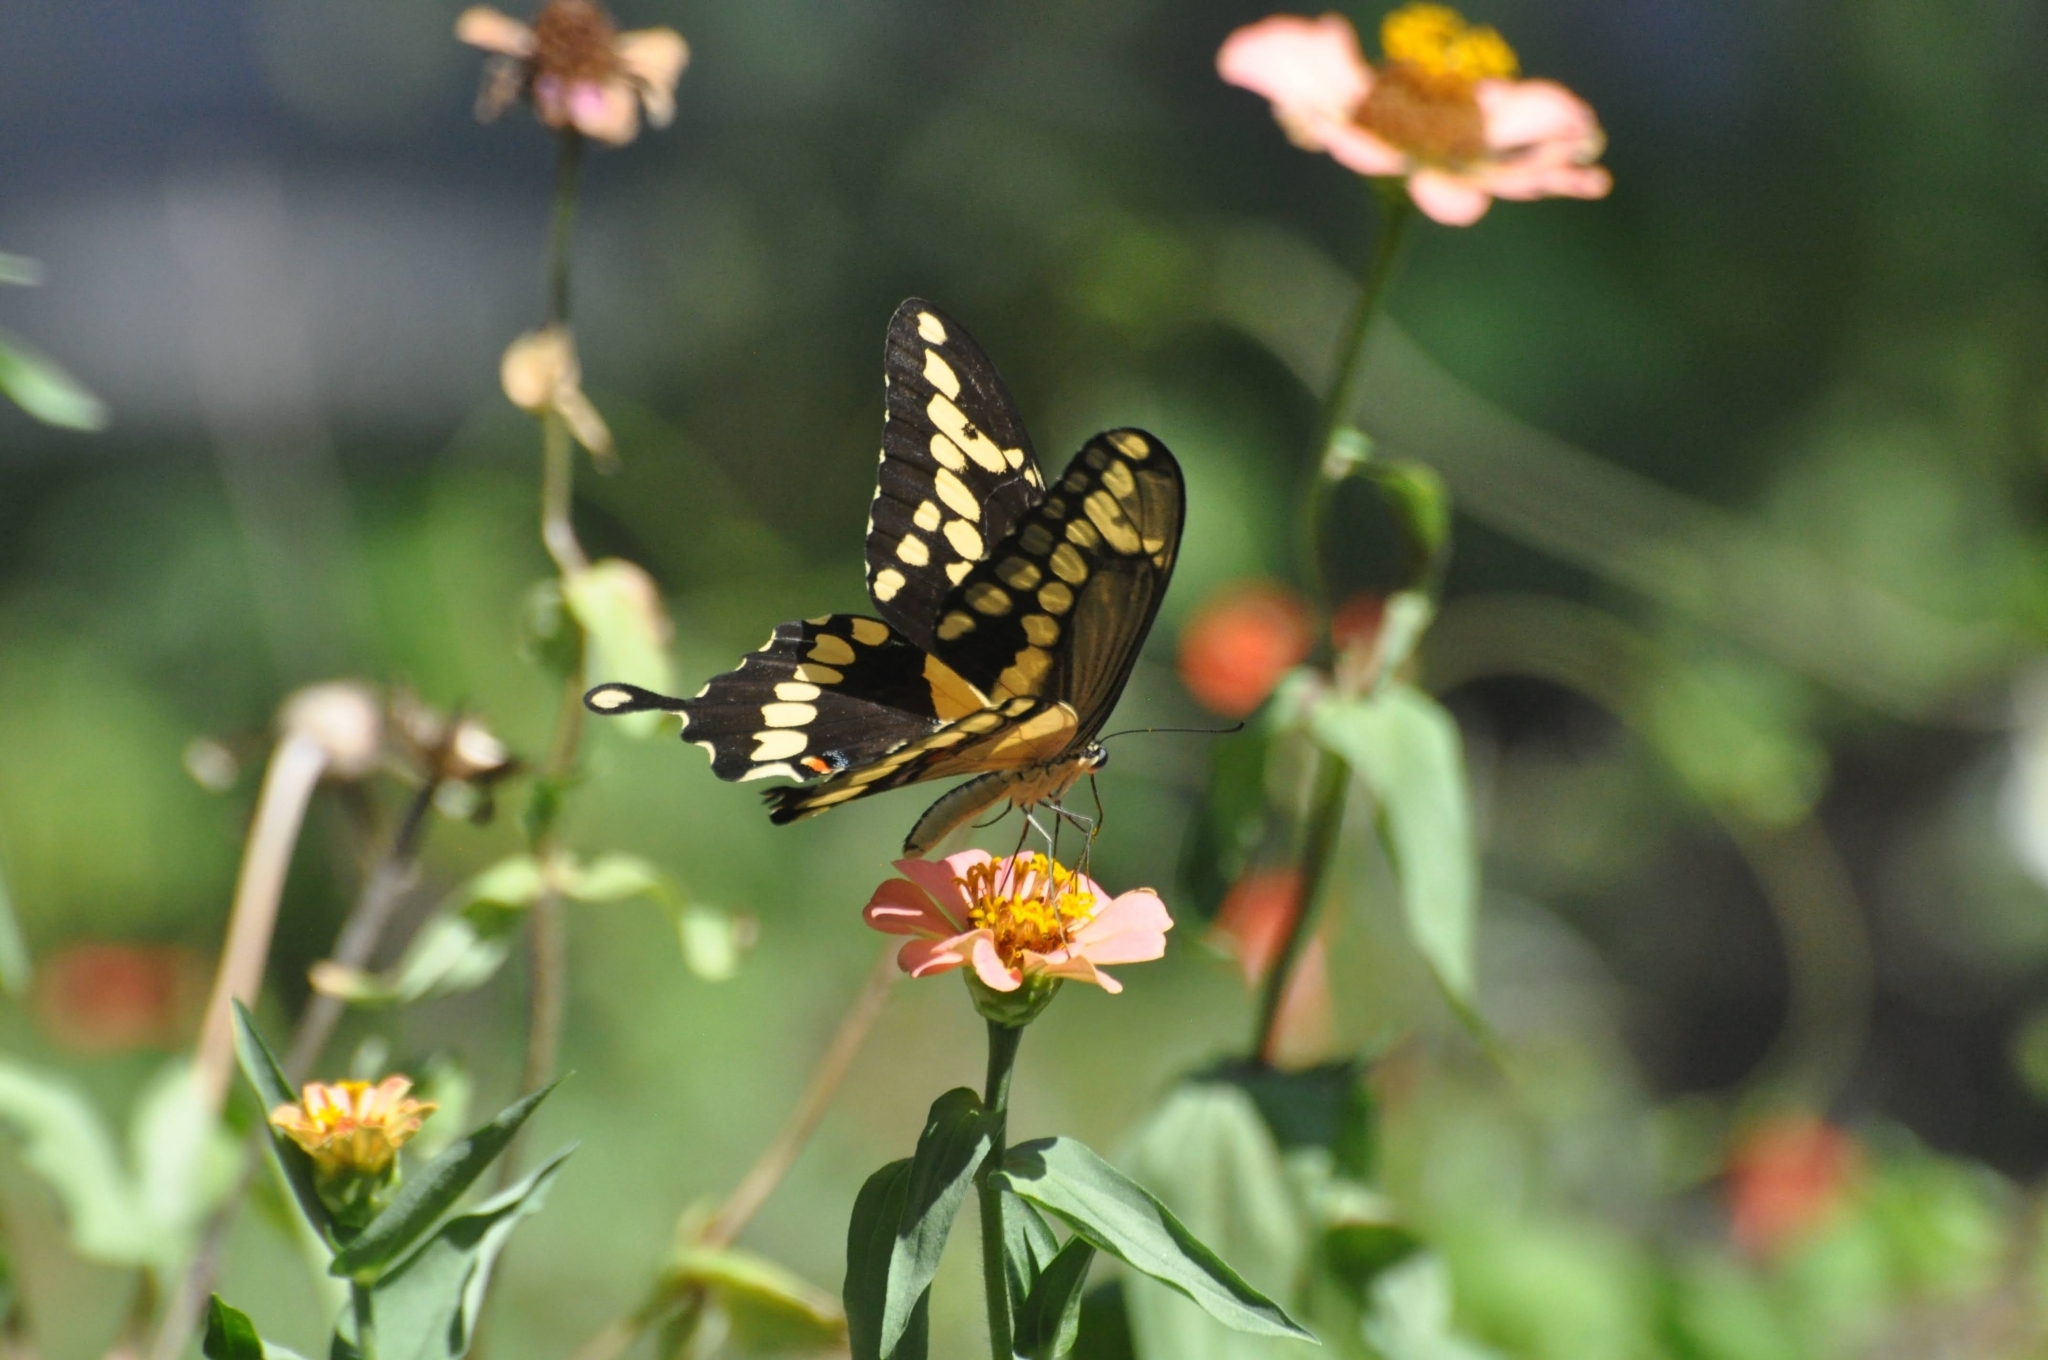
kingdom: Animalia
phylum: Arthropoda
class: Insecta
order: Lepidoptera
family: Papilionidae
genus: Papilio
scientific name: Papilio cresphontes
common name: Giant swallowtail
